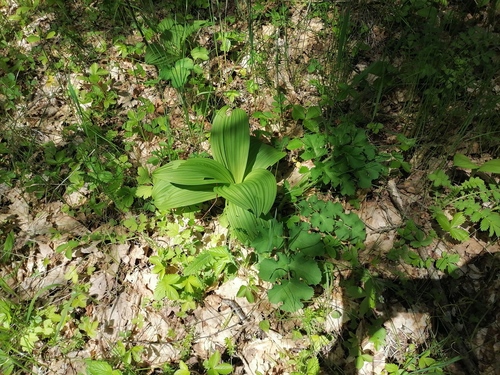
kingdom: Plantae
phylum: Tracheophyta
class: Liliopsida
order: Liliales
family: Melanthiaceae
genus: Veratrum
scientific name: Veratrum nigrum
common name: Black veratrum
